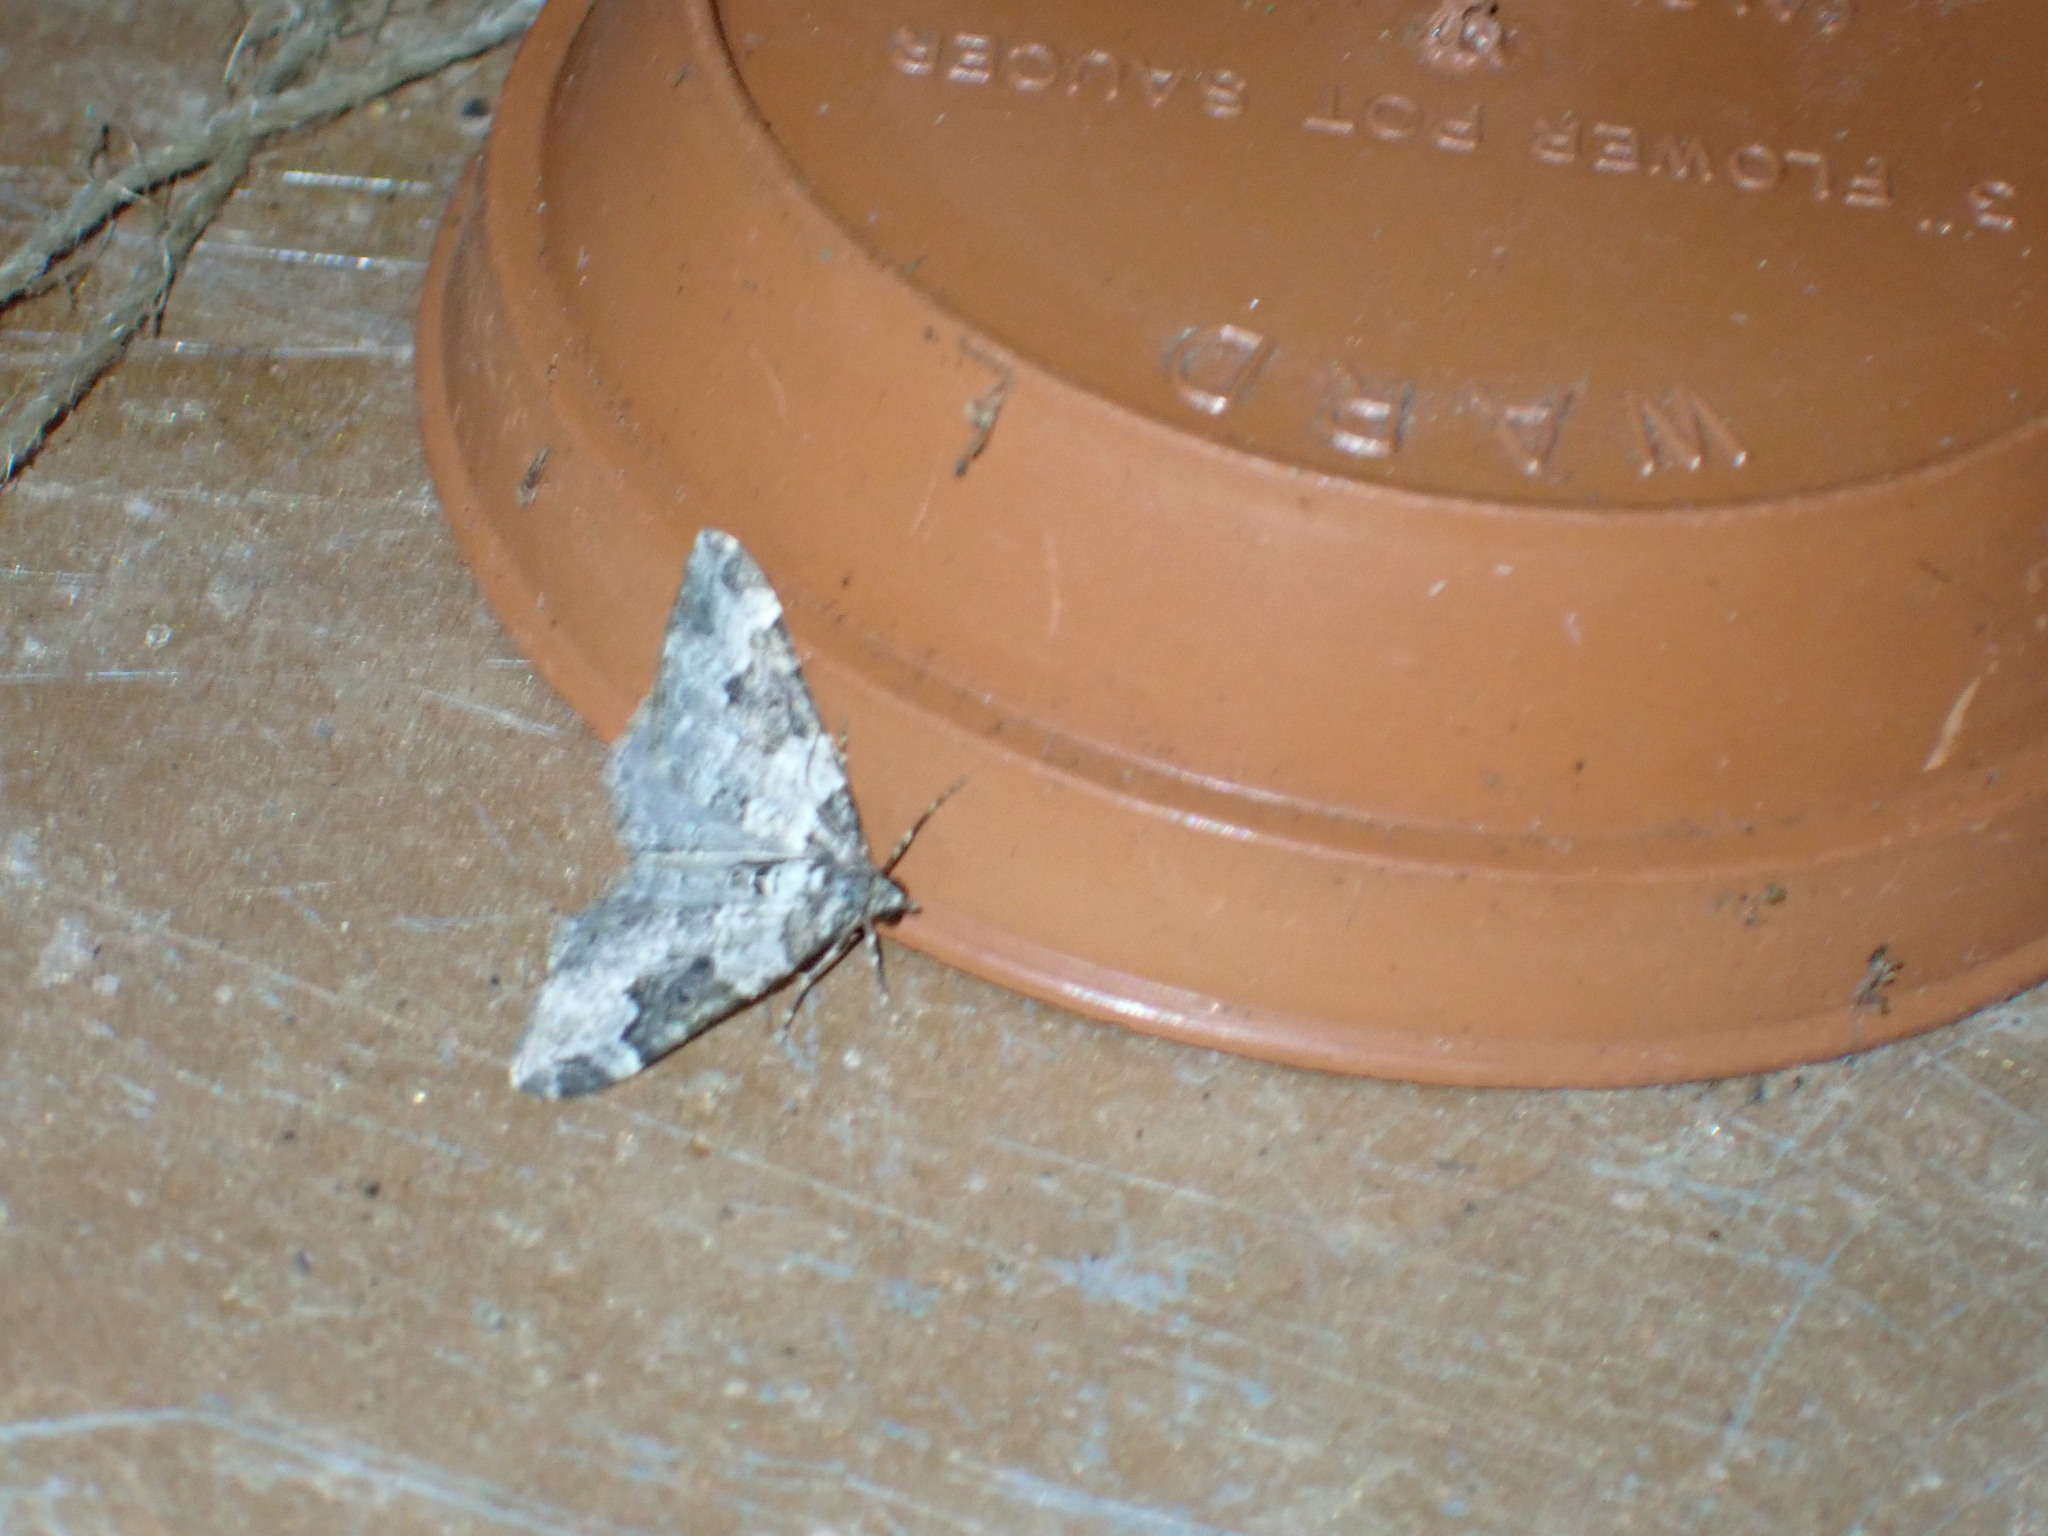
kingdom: Animalia
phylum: Arthropoda
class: Insecta
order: Lepidoptera
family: Geometridae
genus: Xanthorhoe
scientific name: Xanthorhoe fluctuata
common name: Garden carpet
